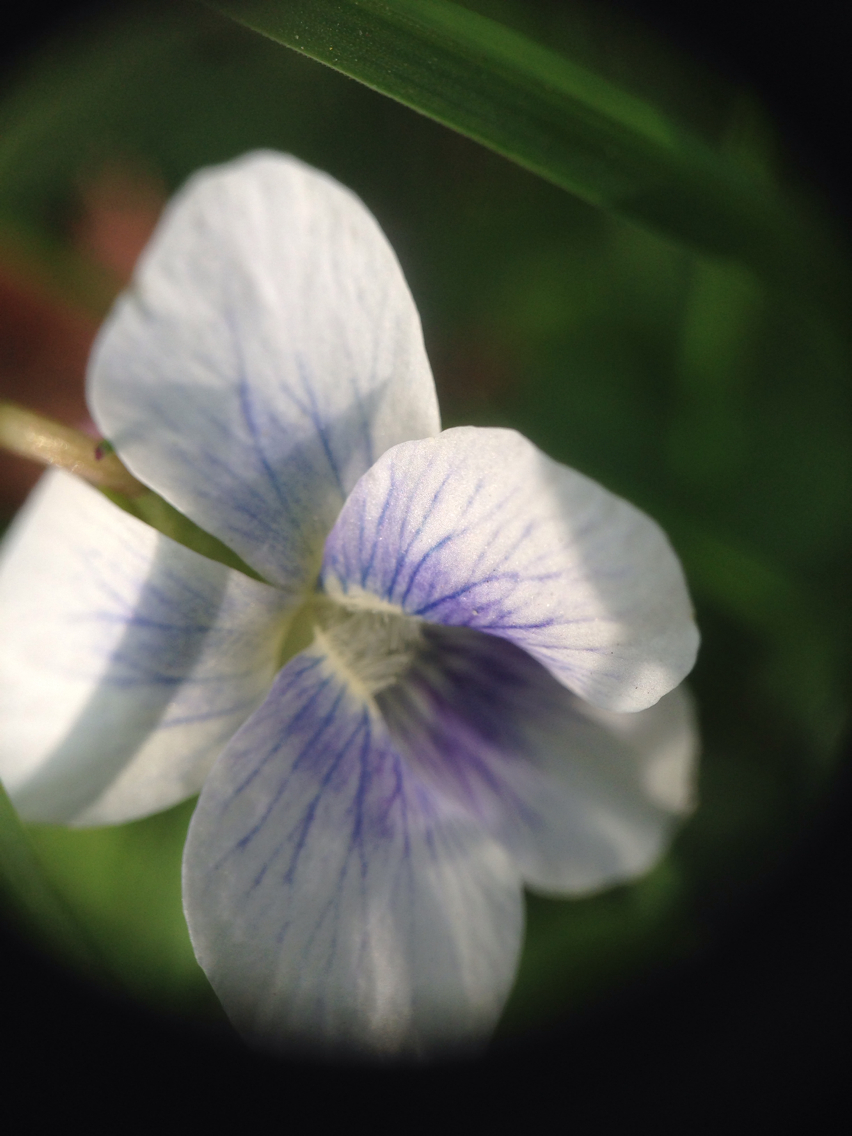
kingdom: Plantae
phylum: Tracheophyta
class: Magnoliopsida
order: Malpighiales
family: Violaceae
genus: Viola
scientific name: Viola sororia
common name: Dooryard violet
